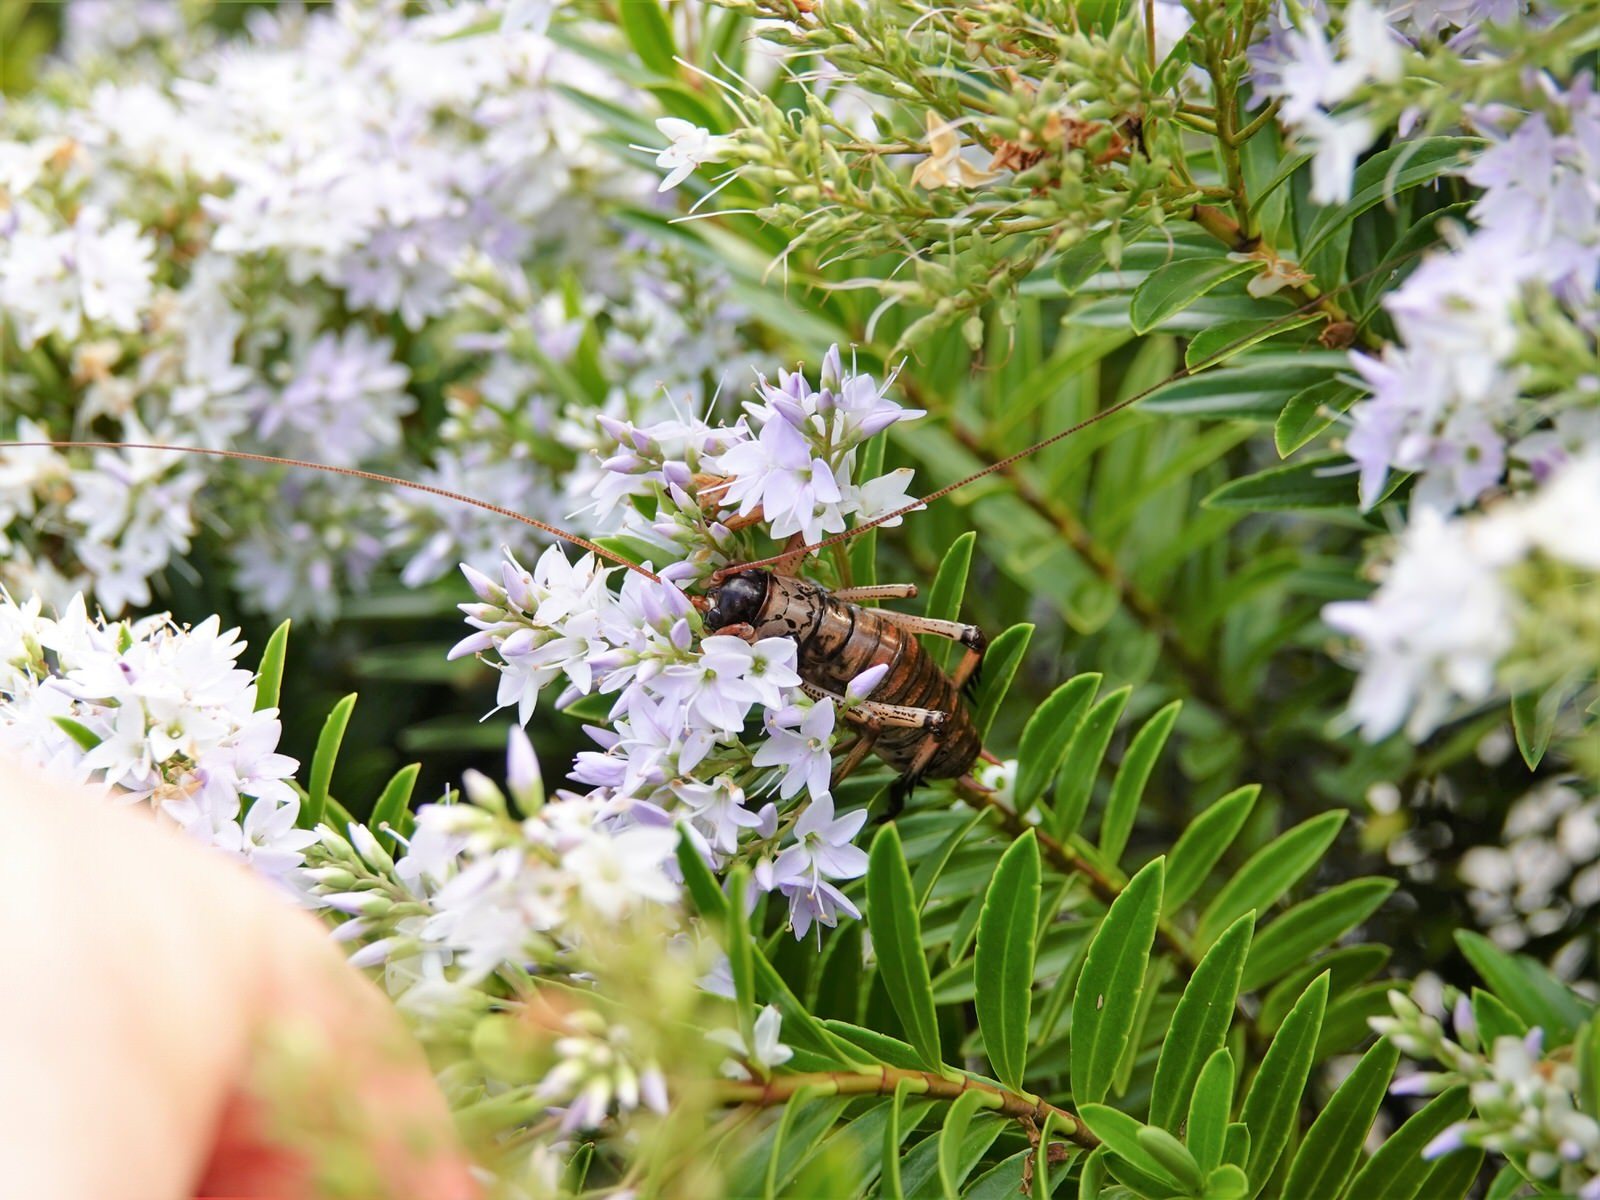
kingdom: Animalia
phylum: Arthropoda
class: Insecta
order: Orthoptera
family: Anostostomatidae
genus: Hemideina
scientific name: Hemideina thoracica
